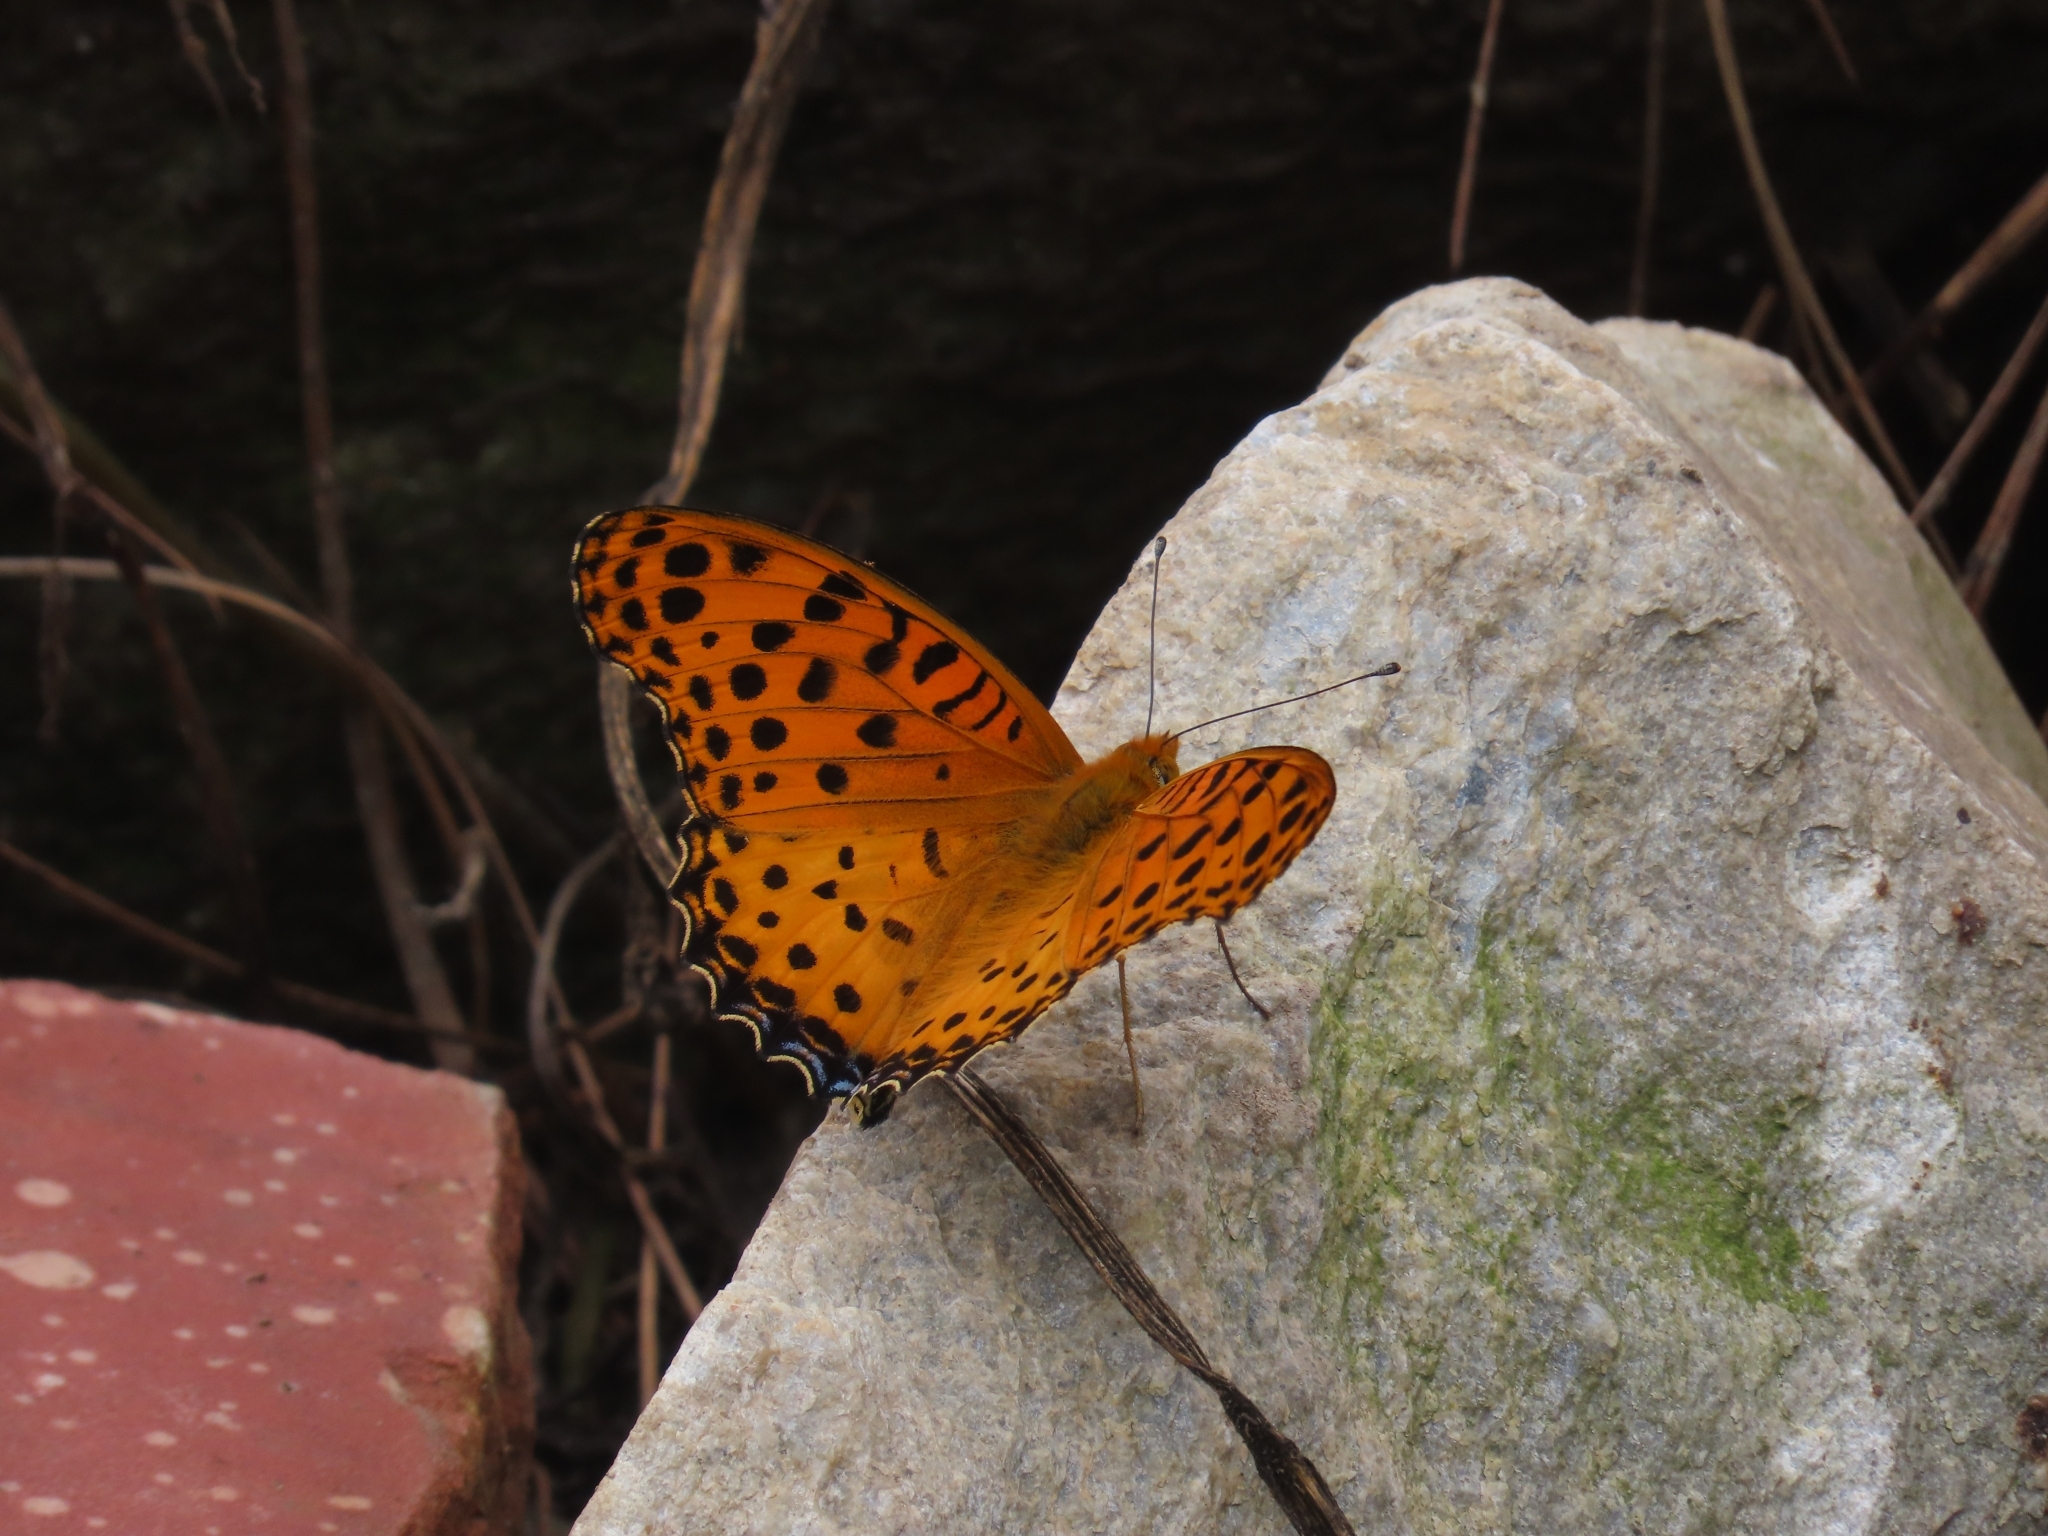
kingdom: Animalia
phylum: Arthropoda
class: Insecta
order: Lepidoptera
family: Nymphalidae
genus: Argynnis
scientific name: Argynnis hyperbius
